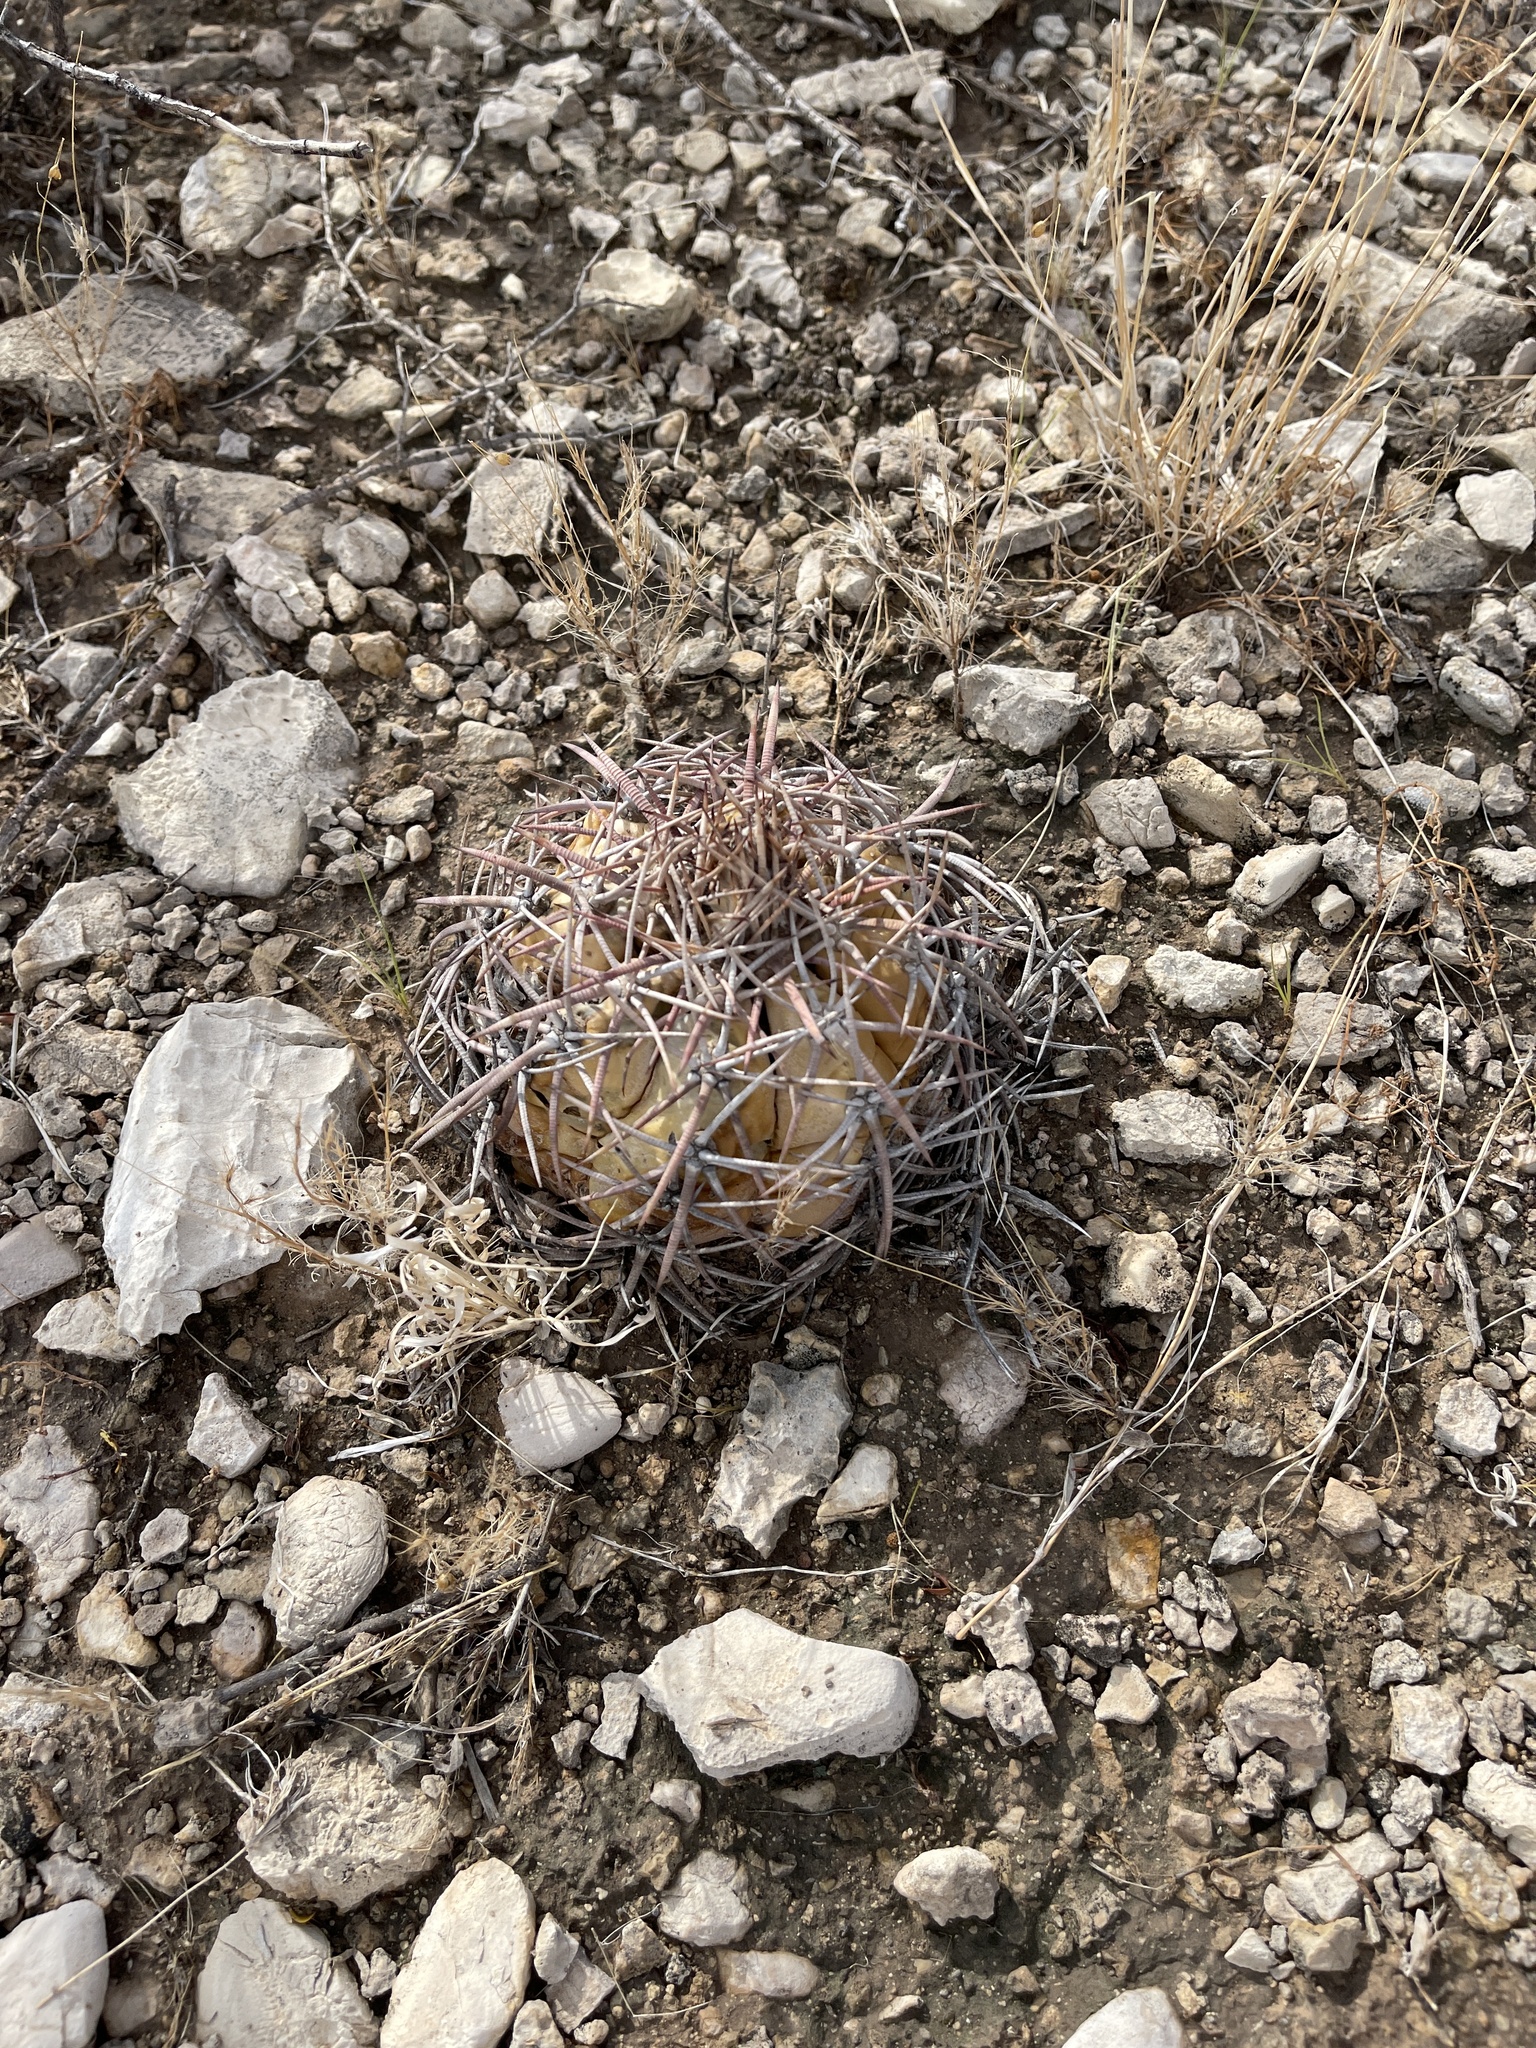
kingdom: Plantae
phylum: Tracheophyta
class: Magnoliopsida
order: Caryophyllales
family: Cactaceae
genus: Echinocactus
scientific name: Echinocactus horizonthalonius
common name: Devilshead
